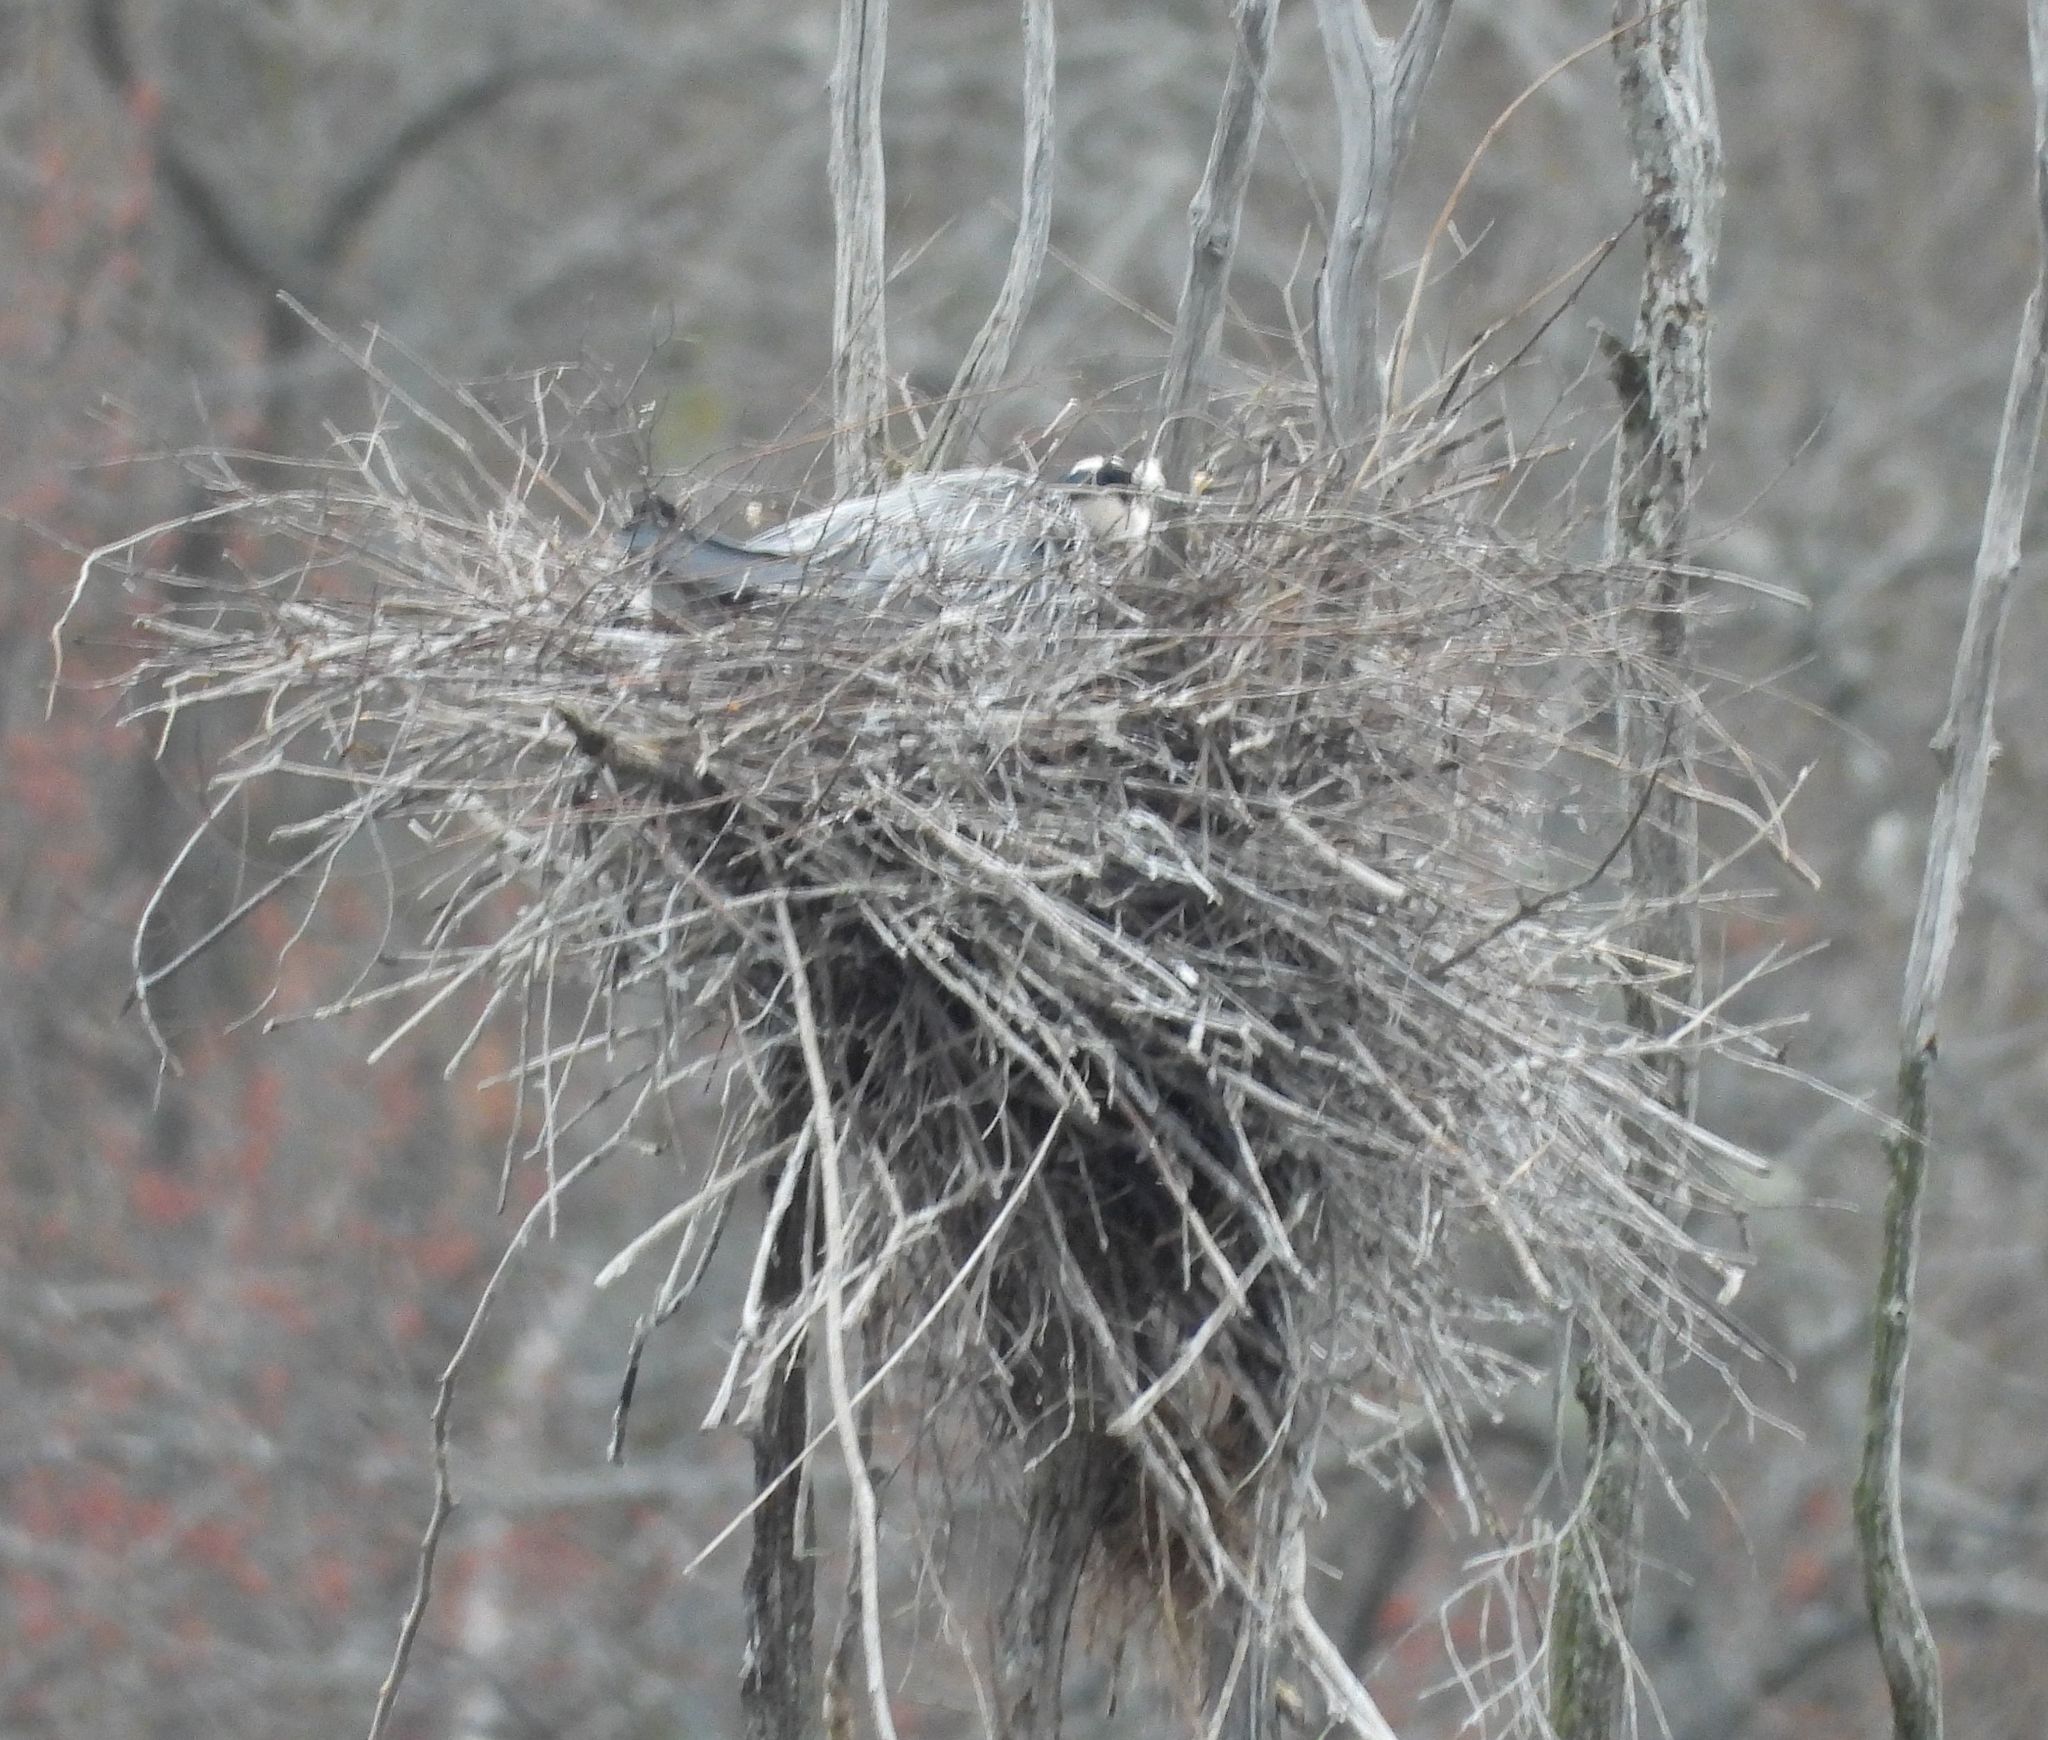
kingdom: Animalia
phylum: Chordata
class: Aves
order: Pelecaniformes
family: Ardeidae
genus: Ardea
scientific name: Ardea herodias
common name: Great blue heron
